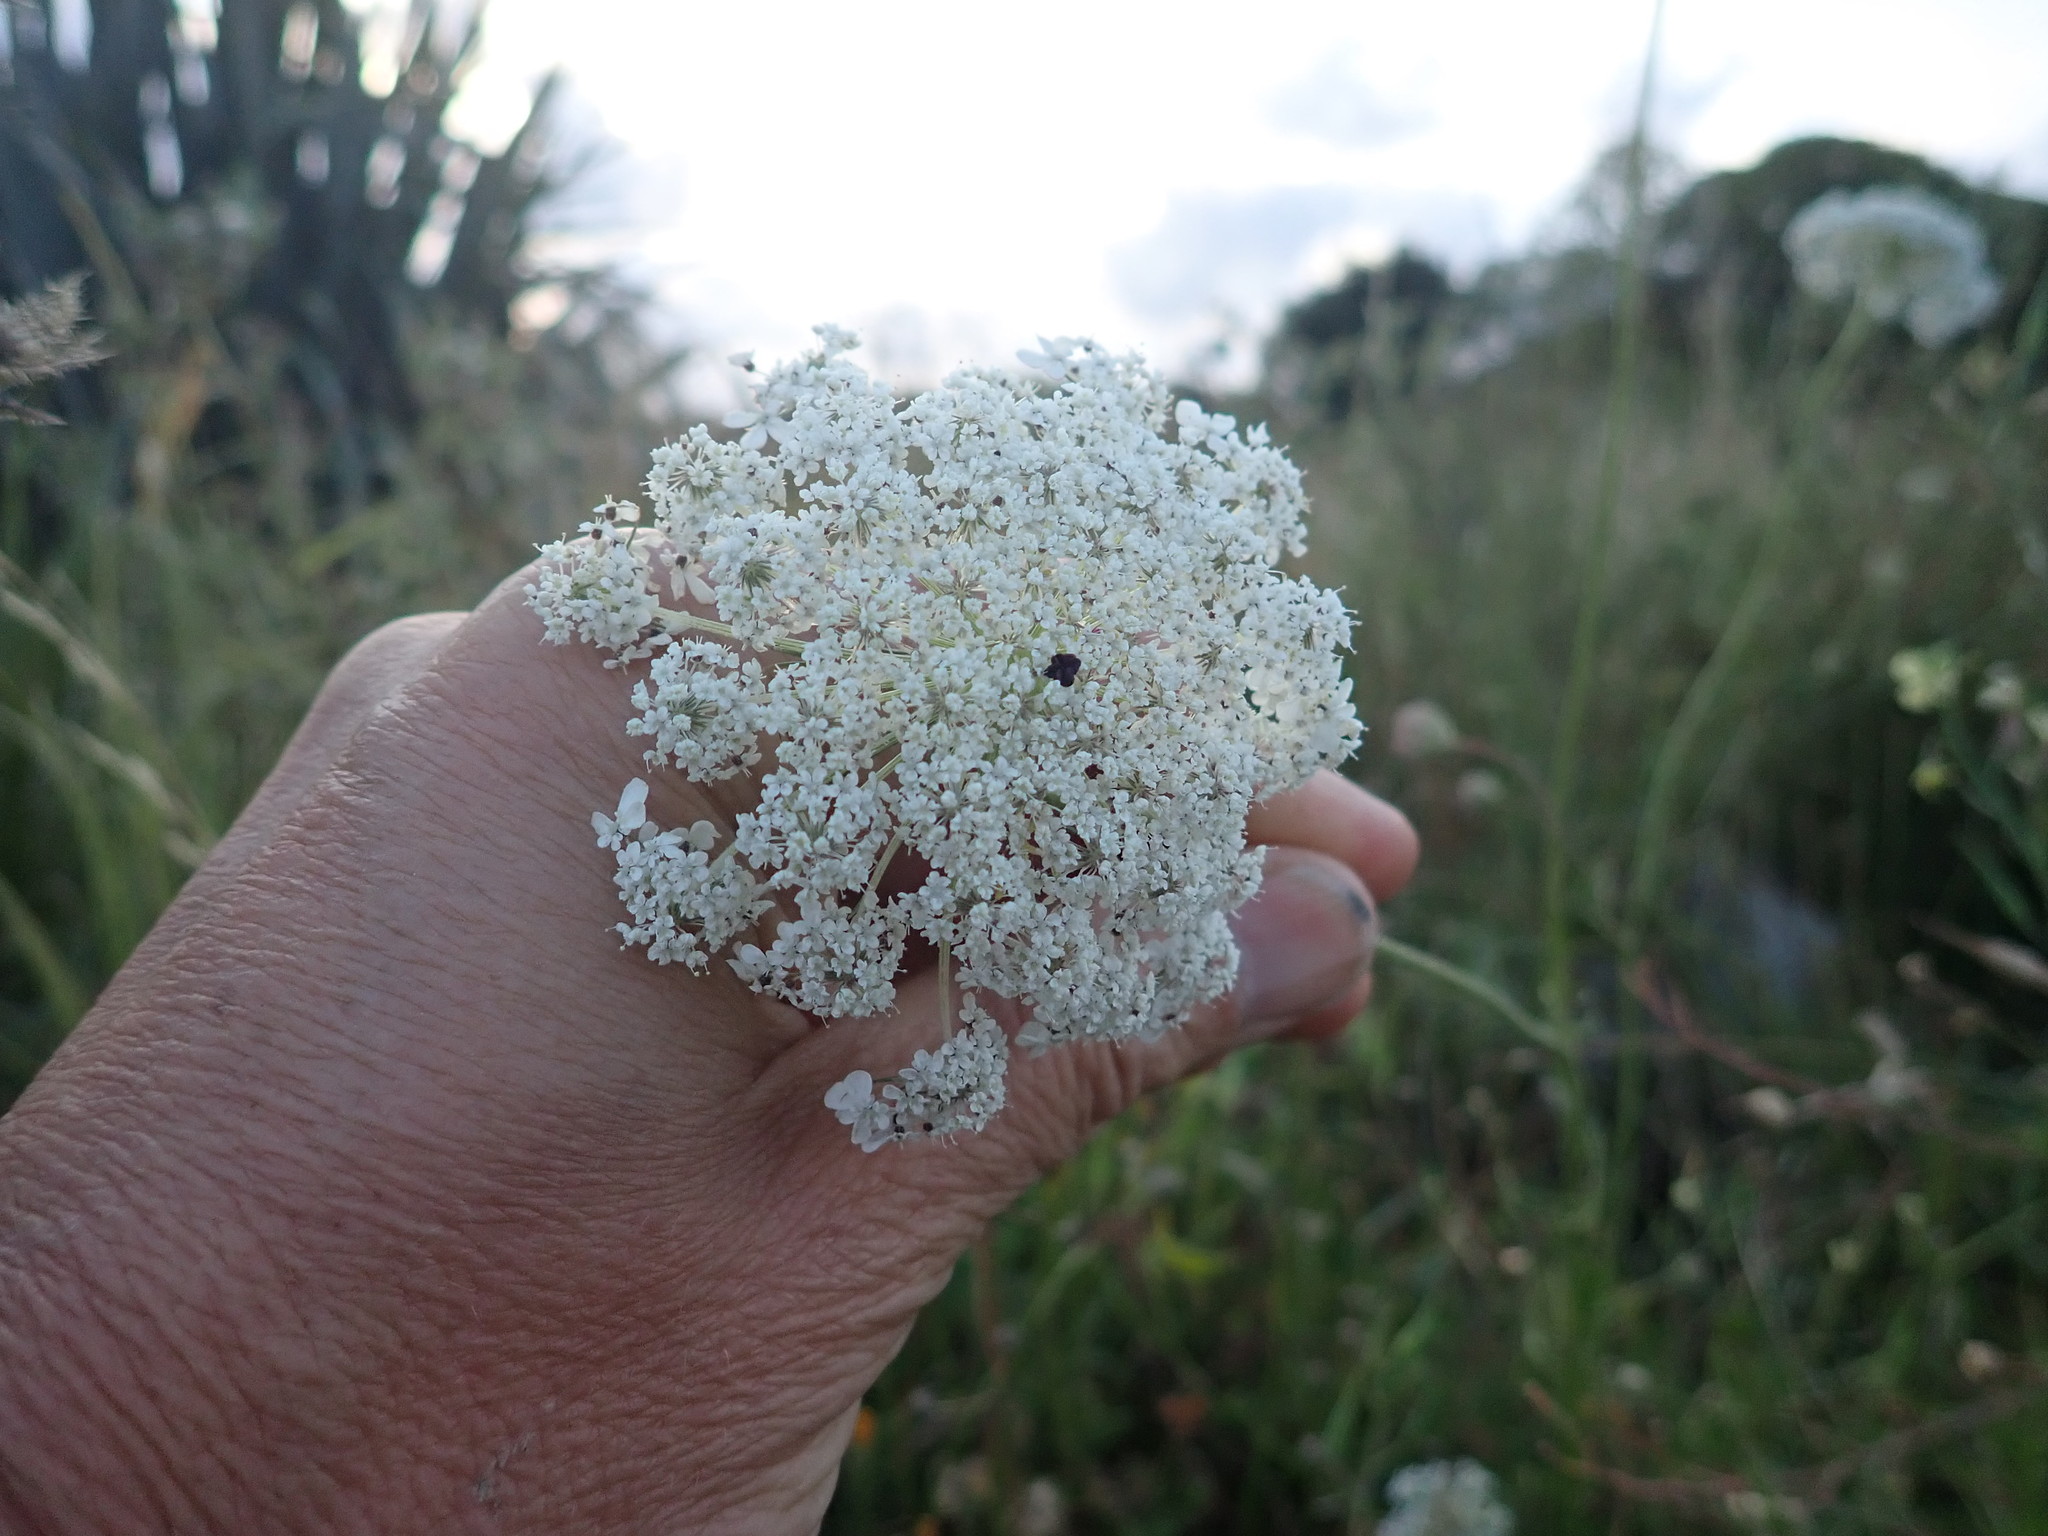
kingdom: Plantae
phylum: Tracheophyta
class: Magnoliopsida
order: Apiales
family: Apiaceae
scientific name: Apiaceae
